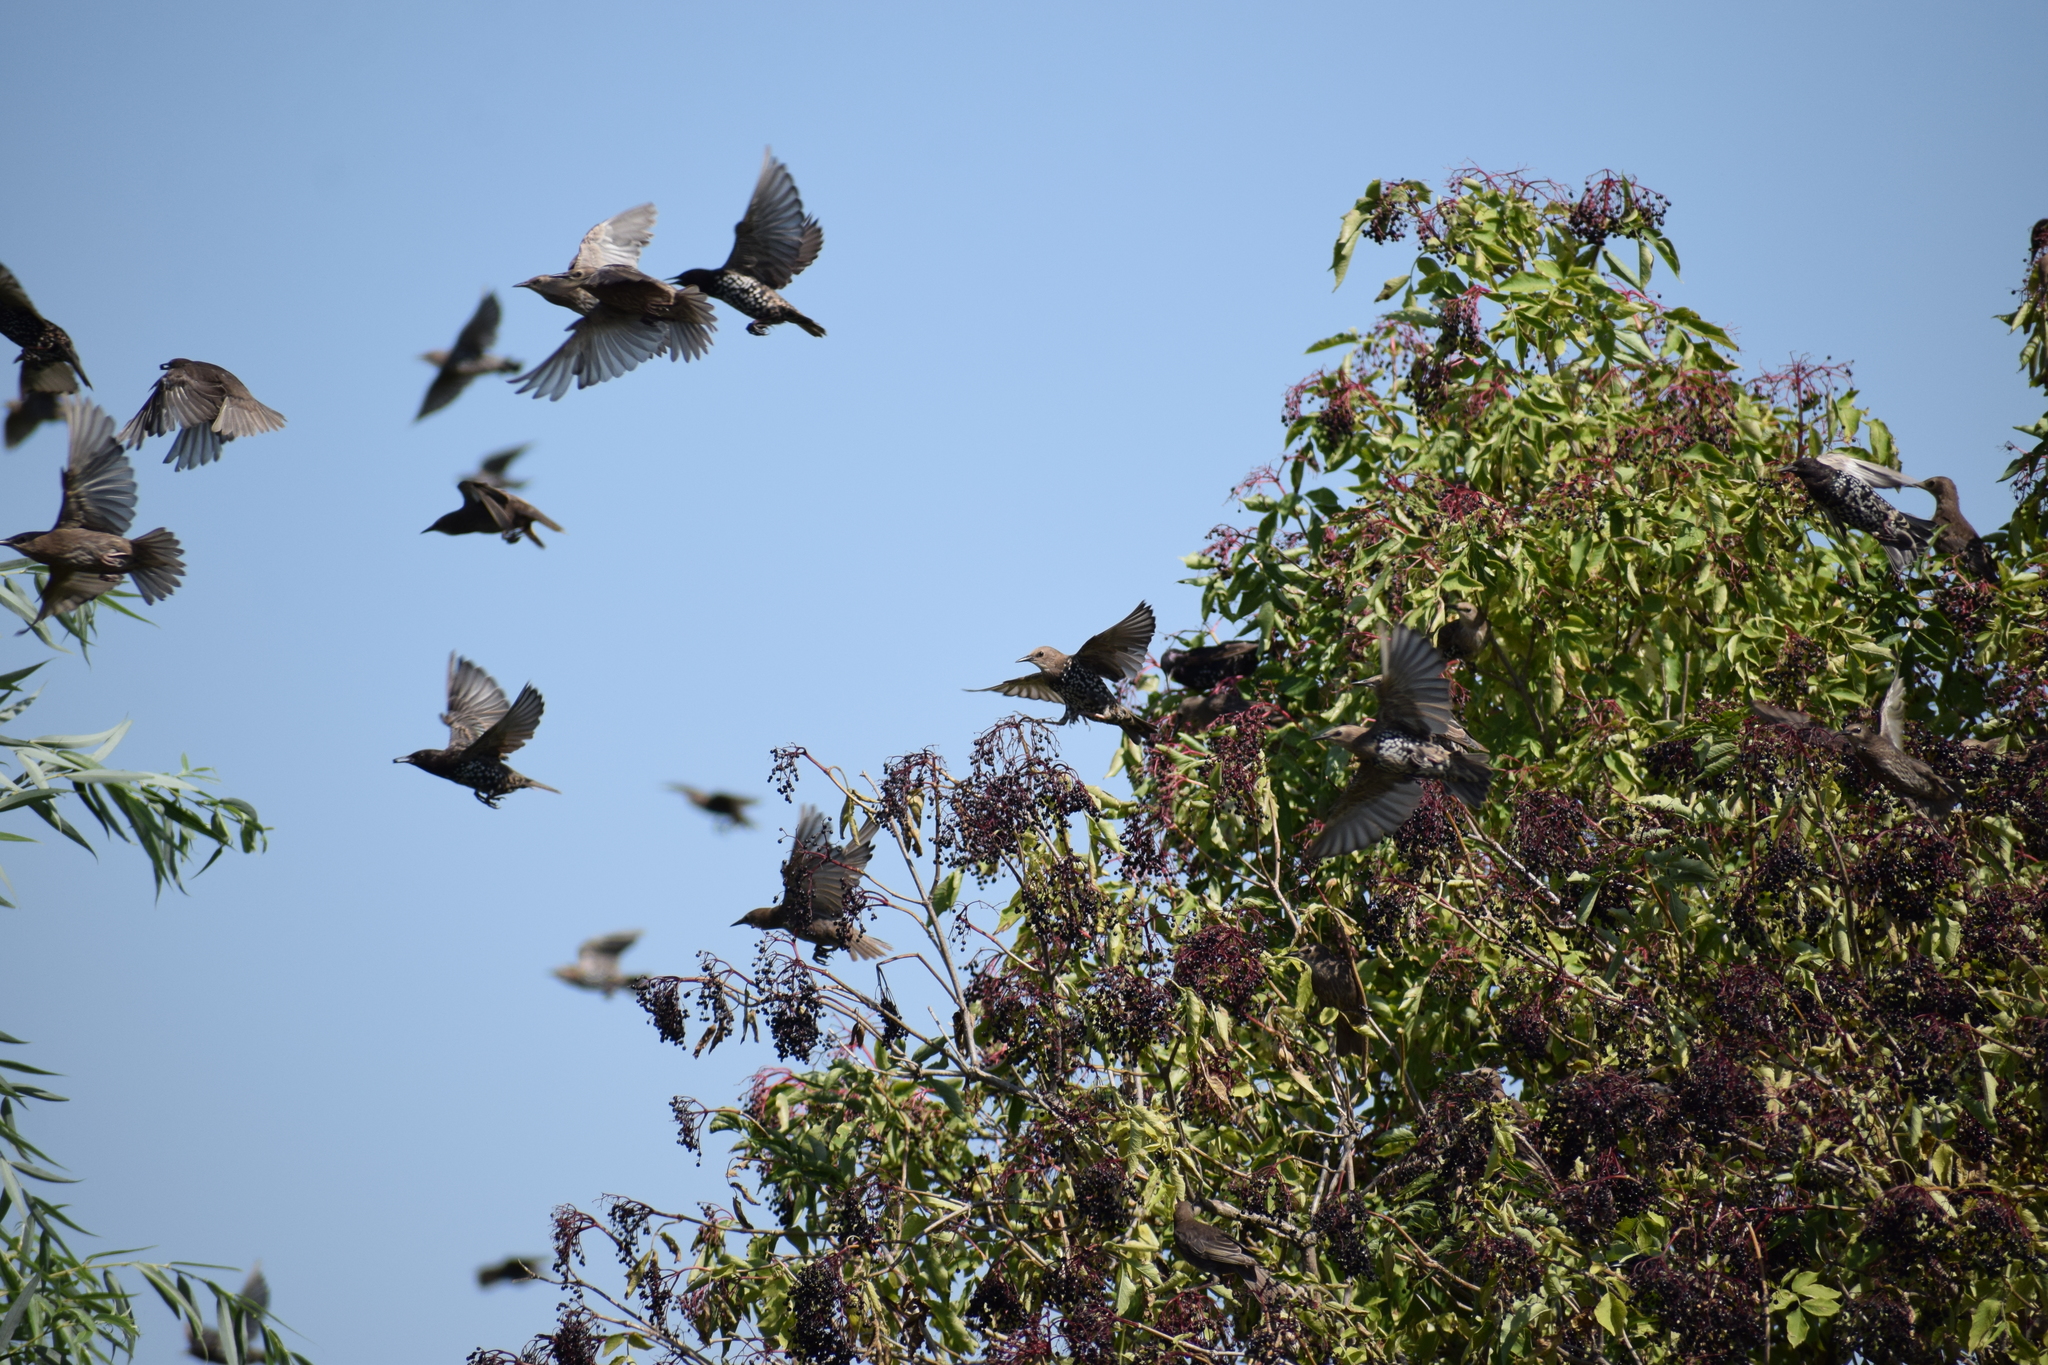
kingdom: Animalia
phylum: Chordata
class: Aves
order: Passeriformes
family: Sturnidae
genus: Sturnus
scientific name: Sturnus vulgaris
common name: Common starling
